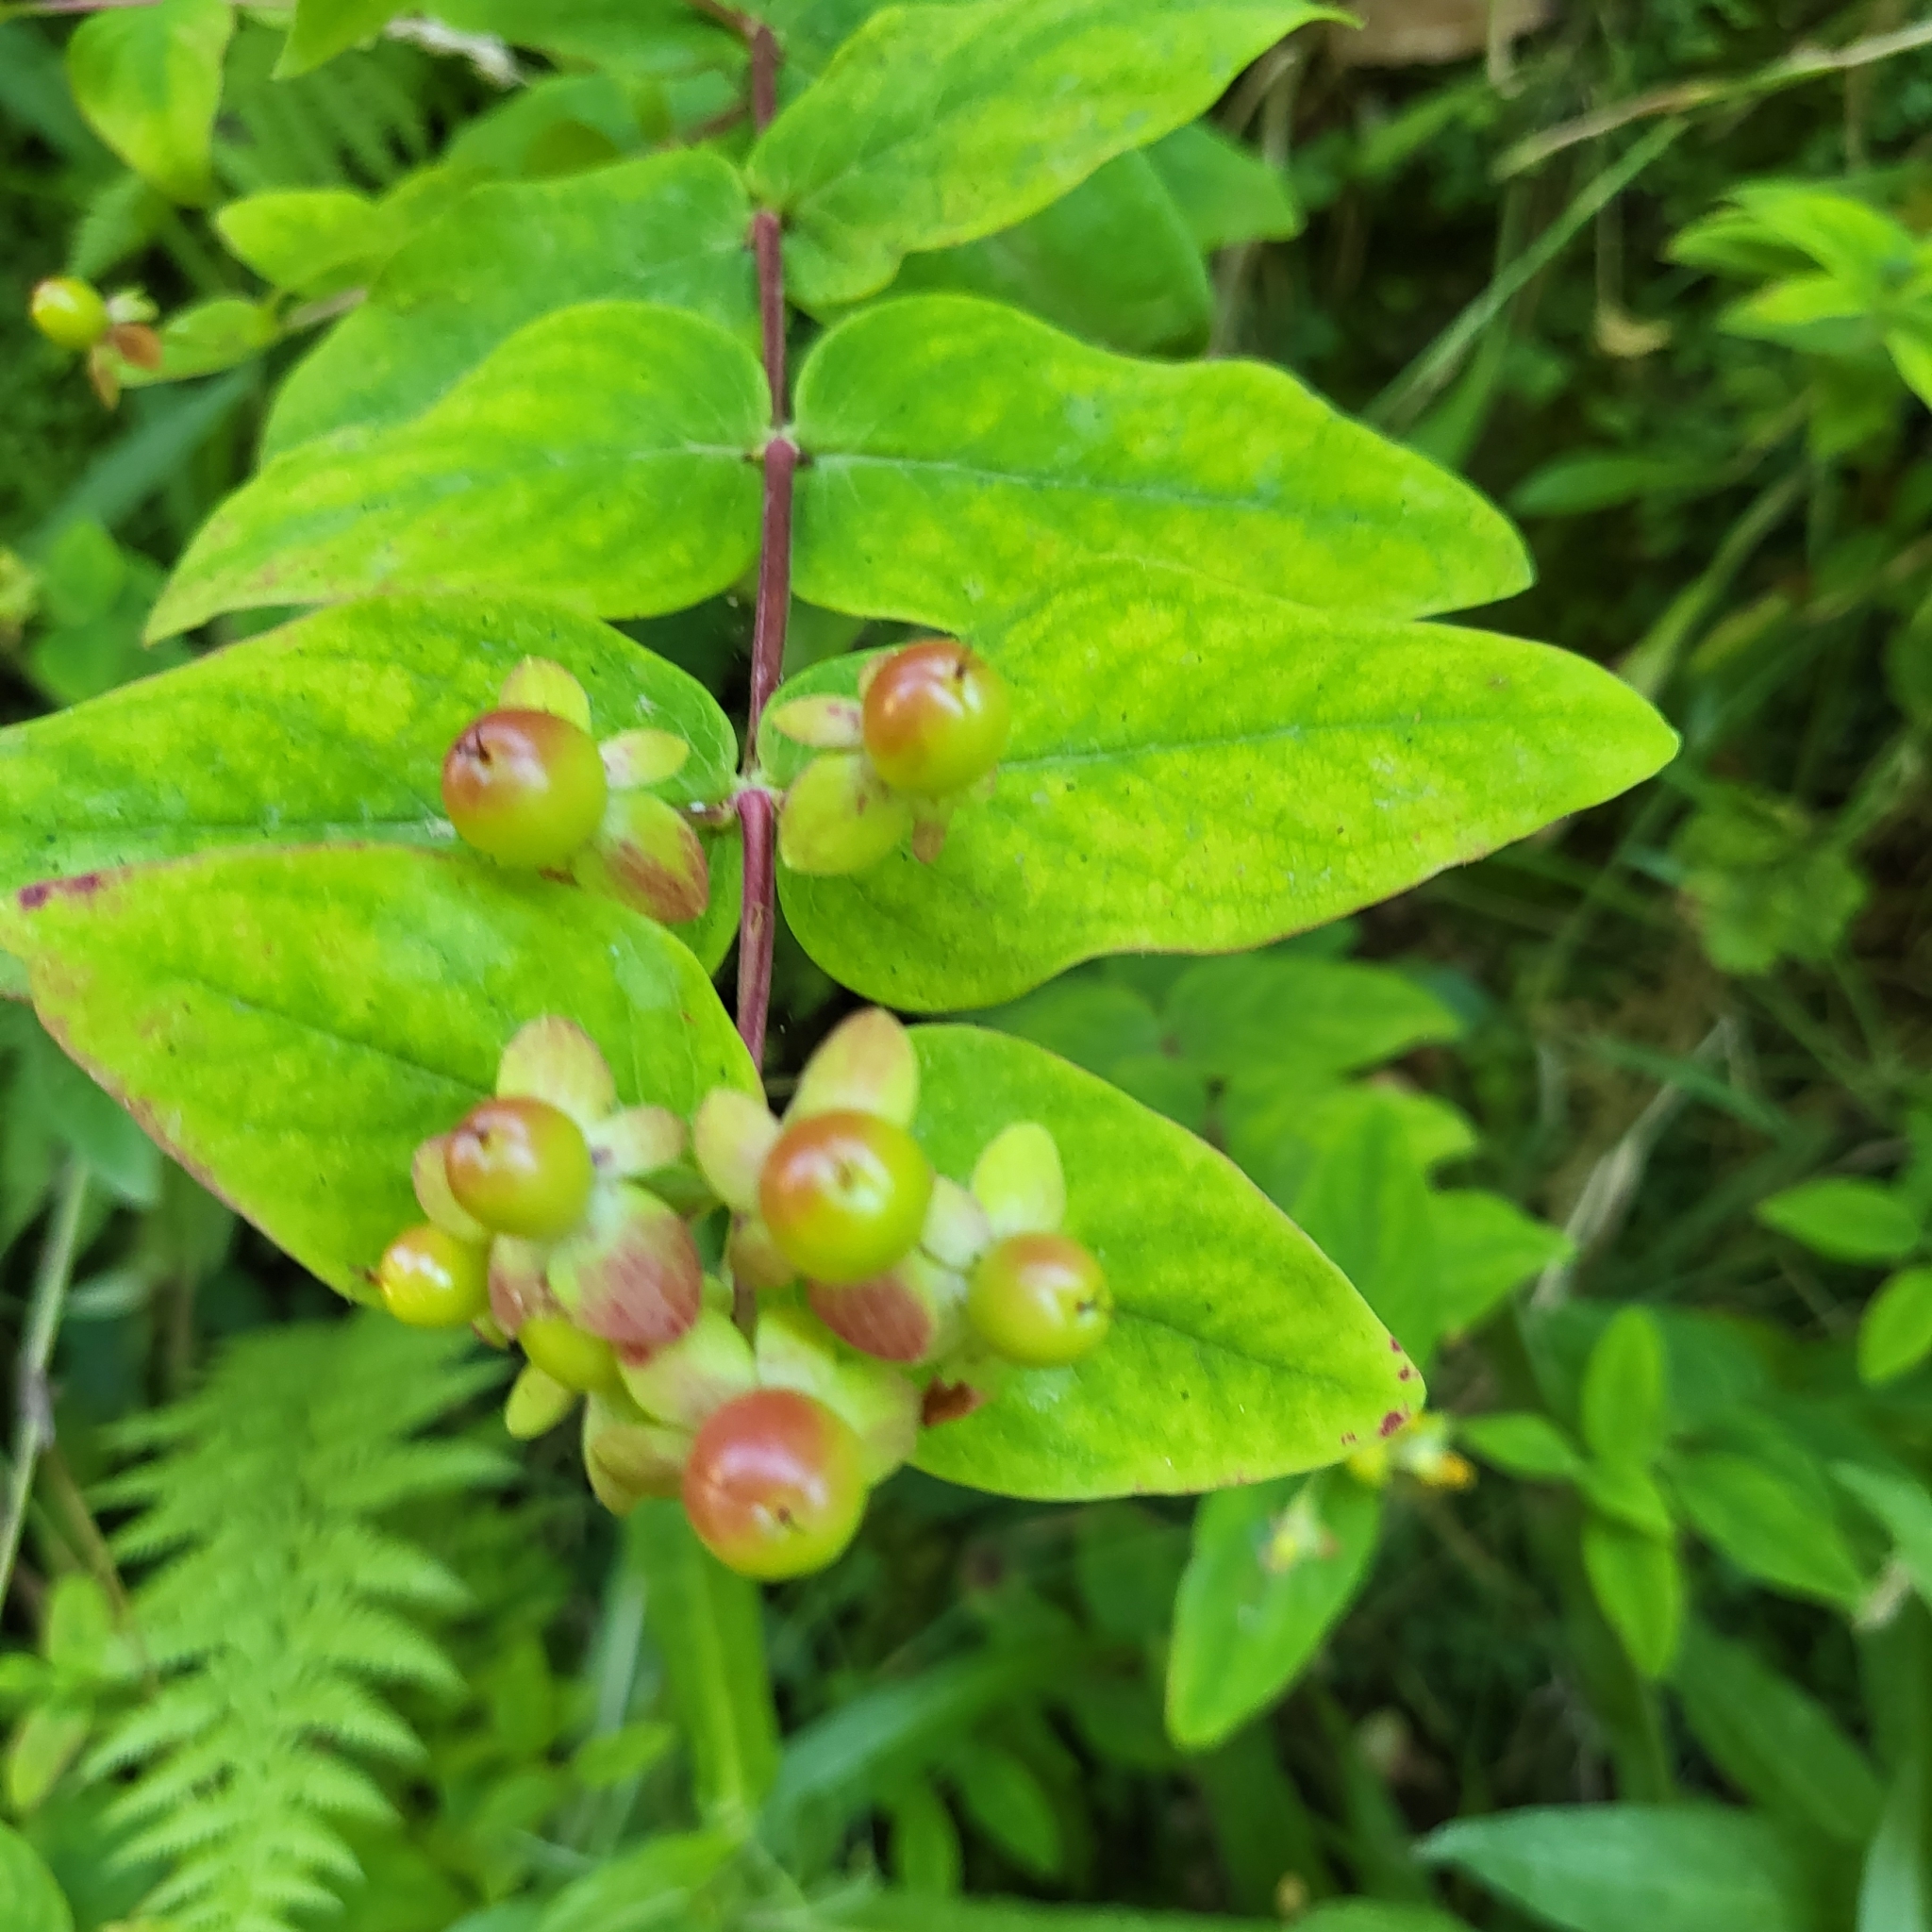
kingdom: Plantae
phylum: Tracheophyta
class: Magnoliopsida
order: Malpighiales
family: Hypericaceae
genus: Hypericum
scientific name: Hypericum androsaemum
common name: Sweet-amber
